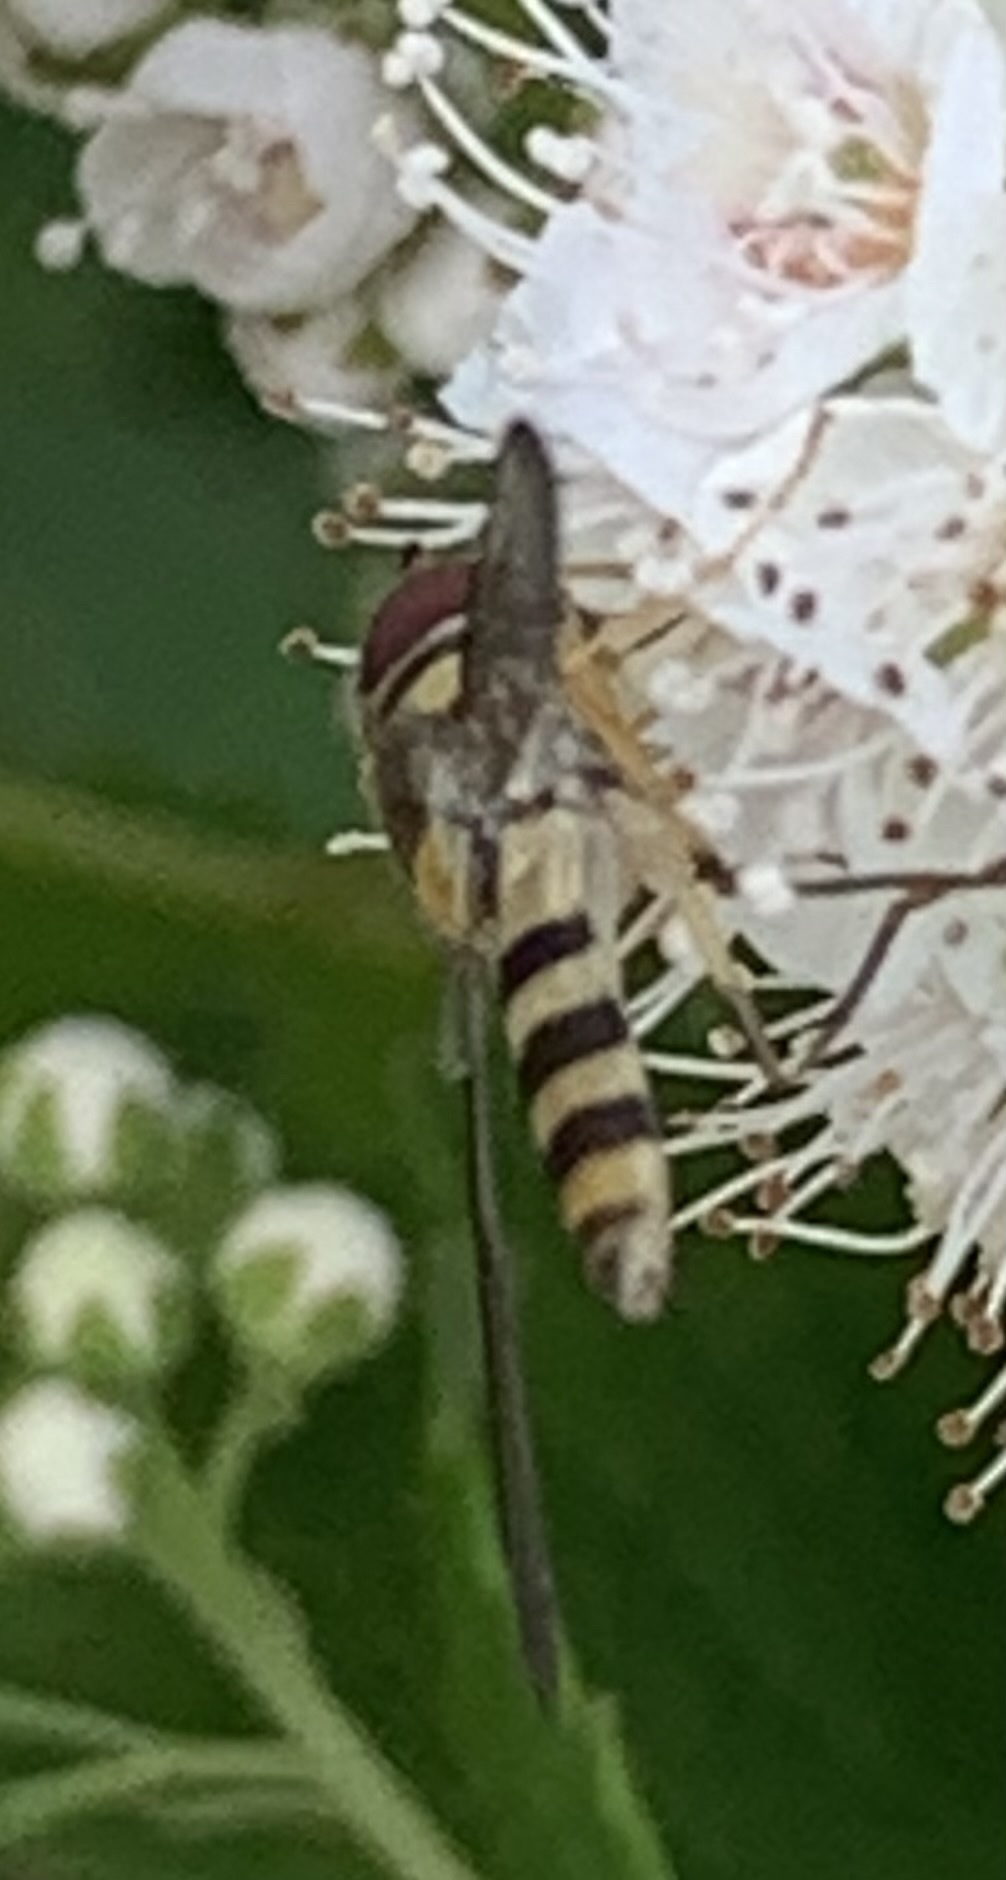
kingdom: Animalia
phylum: Arthropoda
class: Insecta
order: Diptera
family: Syrphidae
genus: Meliscaeva
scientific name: Meliscaeva cinctella
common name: American thintail fly
